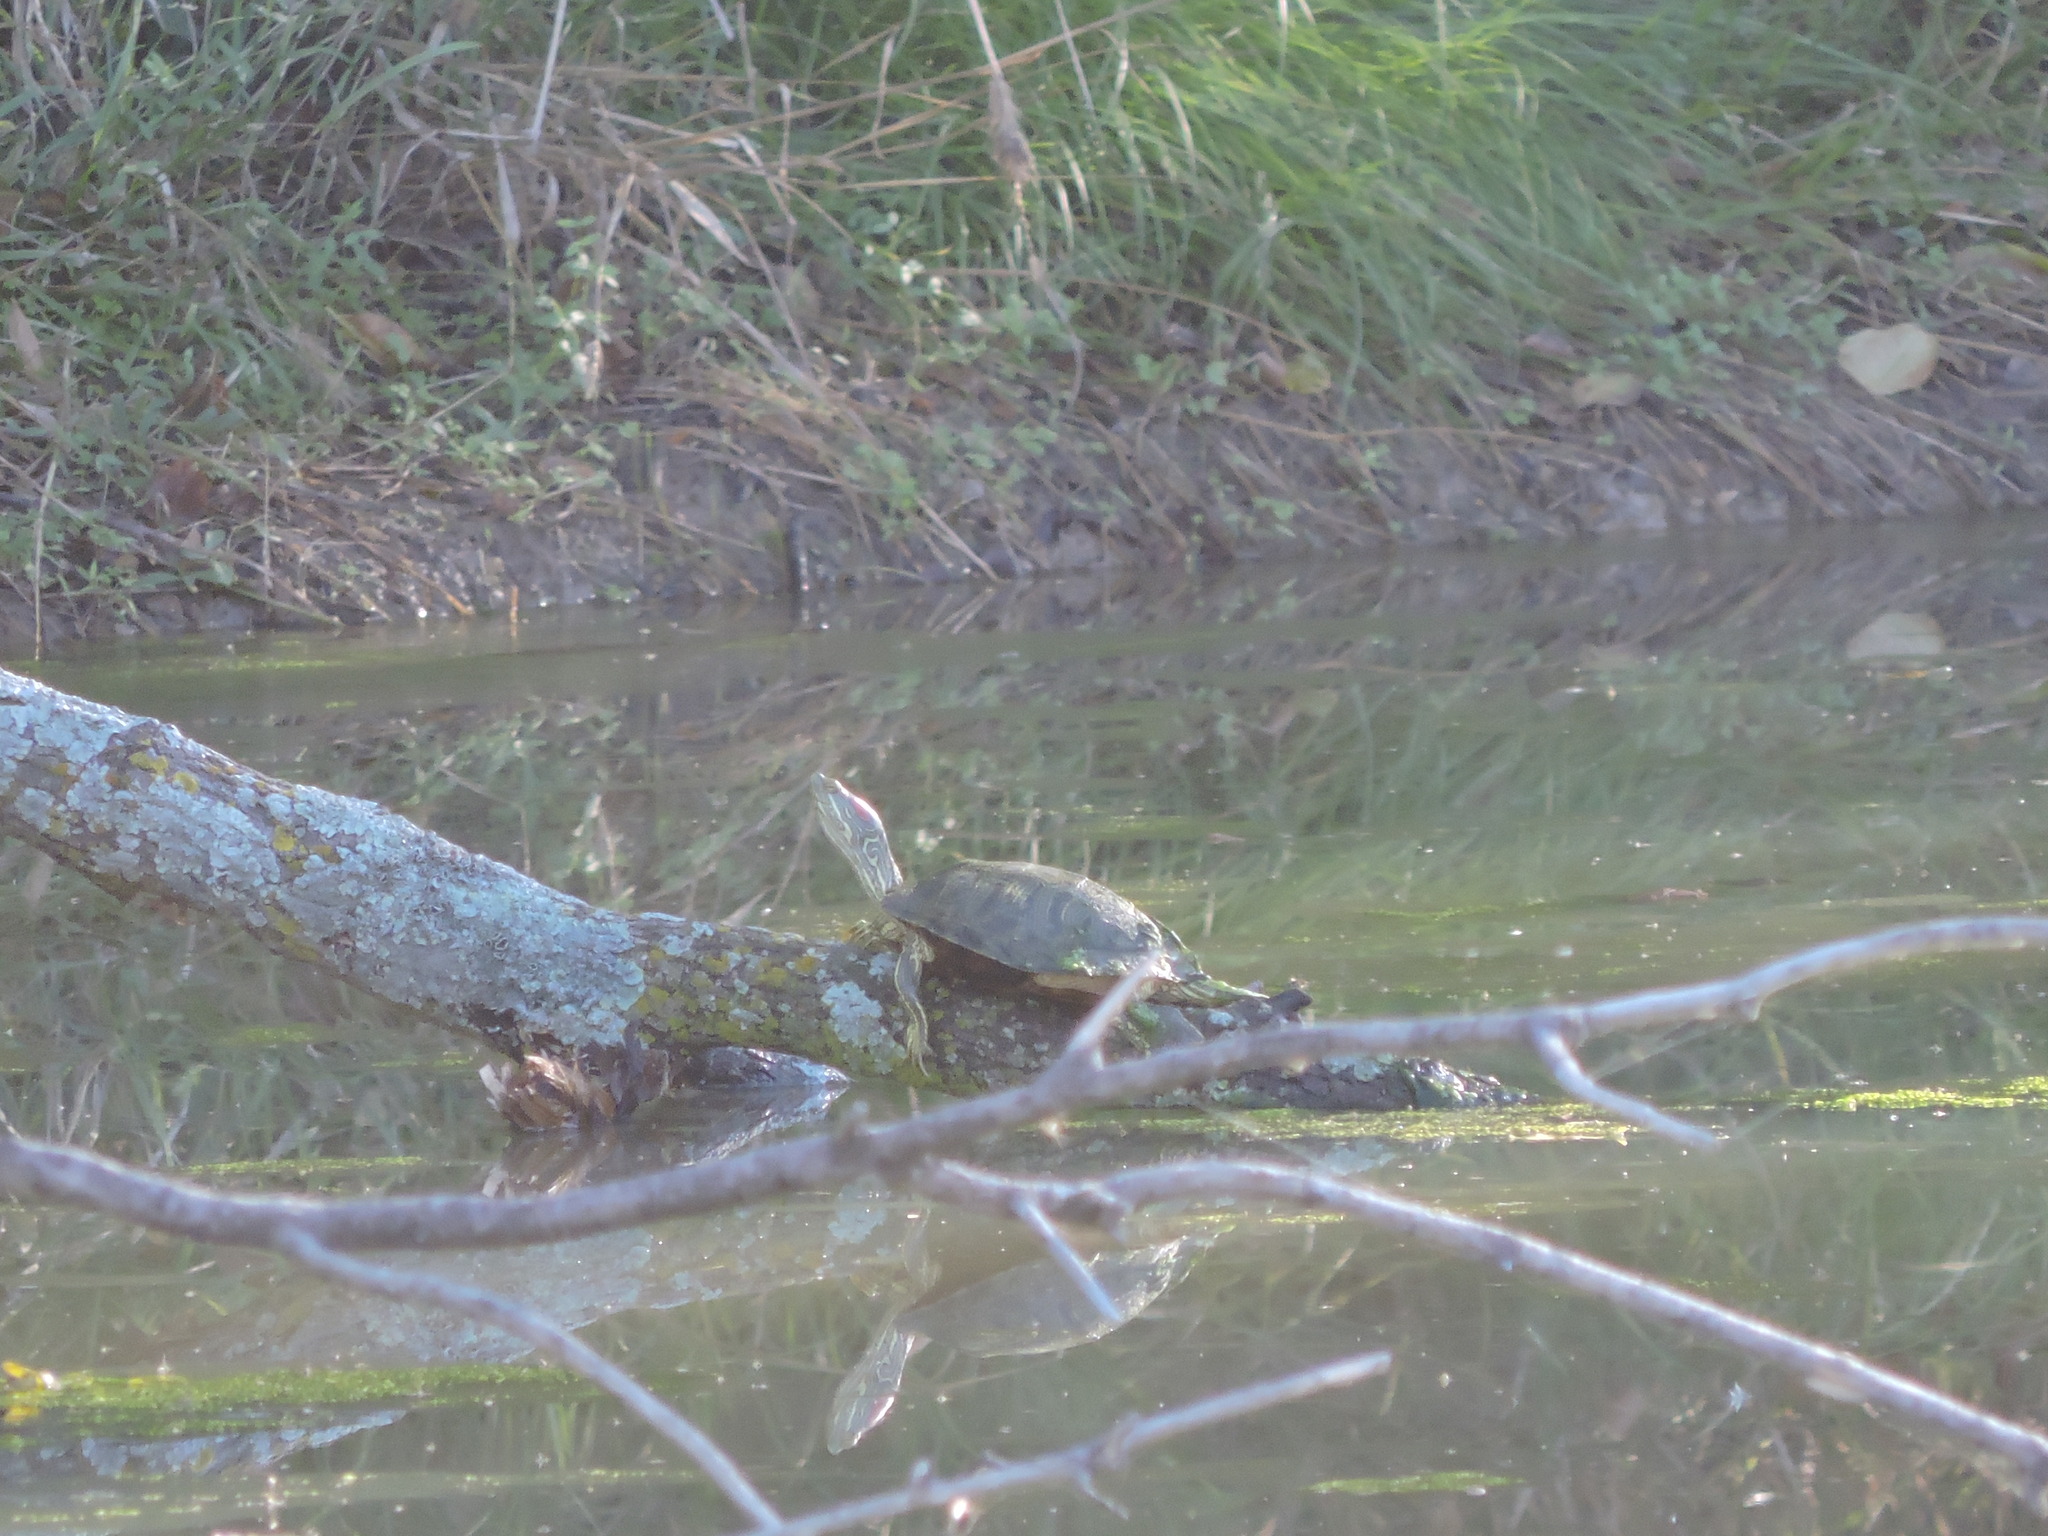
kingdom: Animalia
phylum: Chordata
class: Testudines
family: Emydidae
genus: Trachemys
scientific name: Trachemys scripta
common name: Slider
